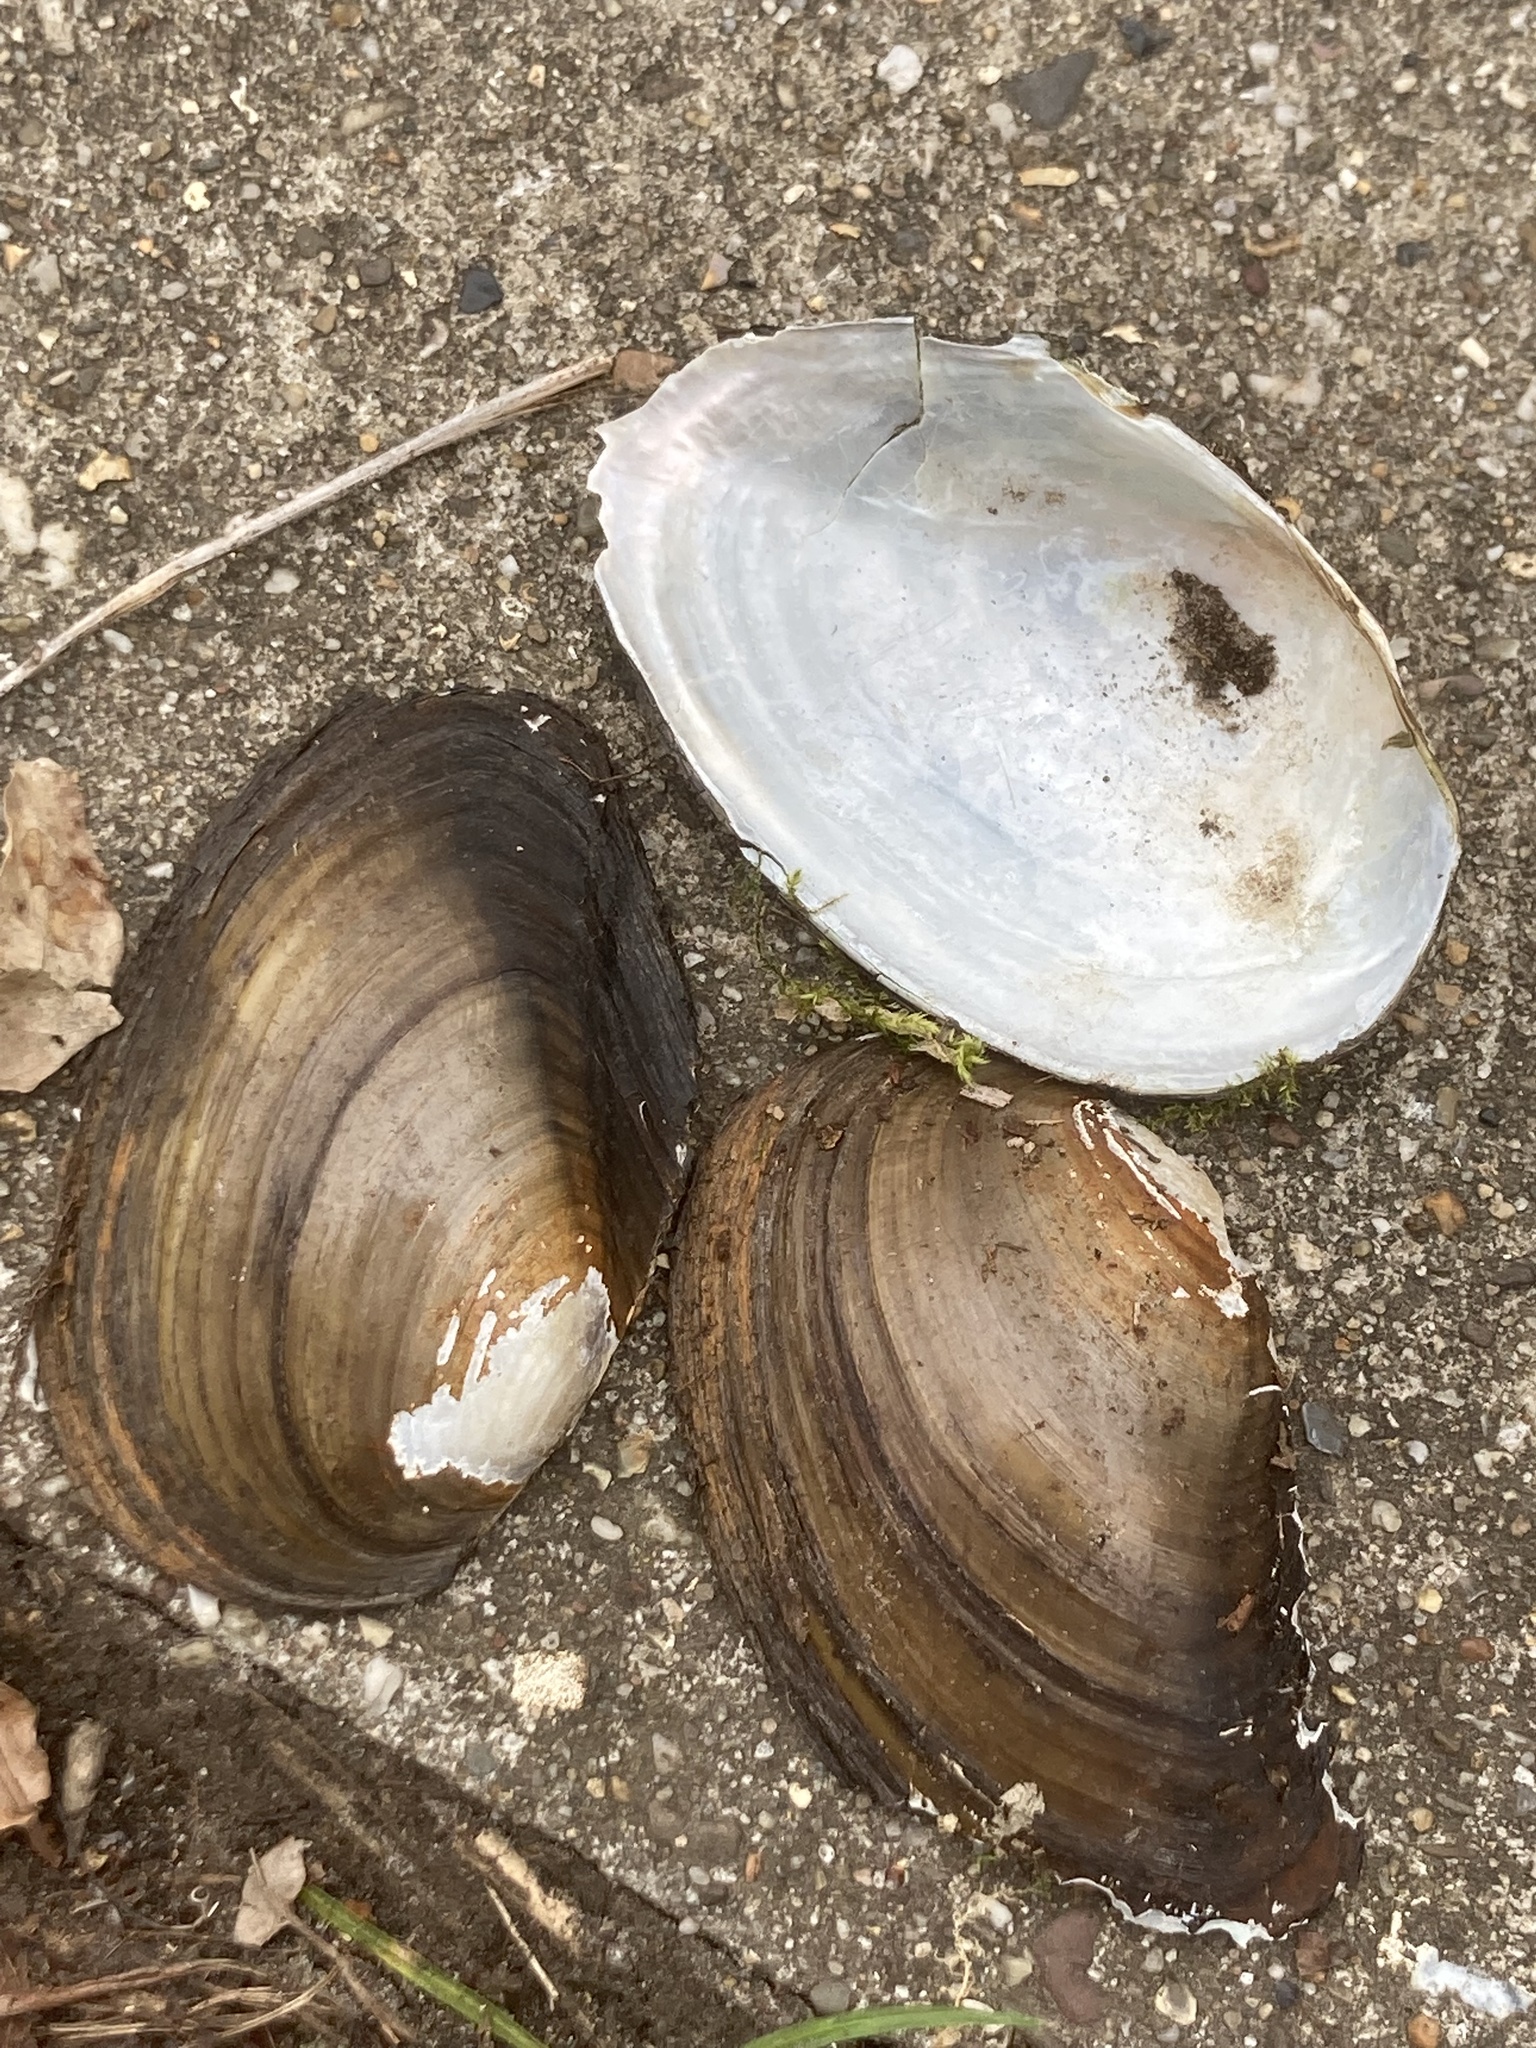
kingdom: Animalia
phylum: Mollusca
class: Bivalvia
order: Unionida
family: Unionidae
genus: Anodonta
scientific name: Anodonta anatina
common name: Duck mussel
